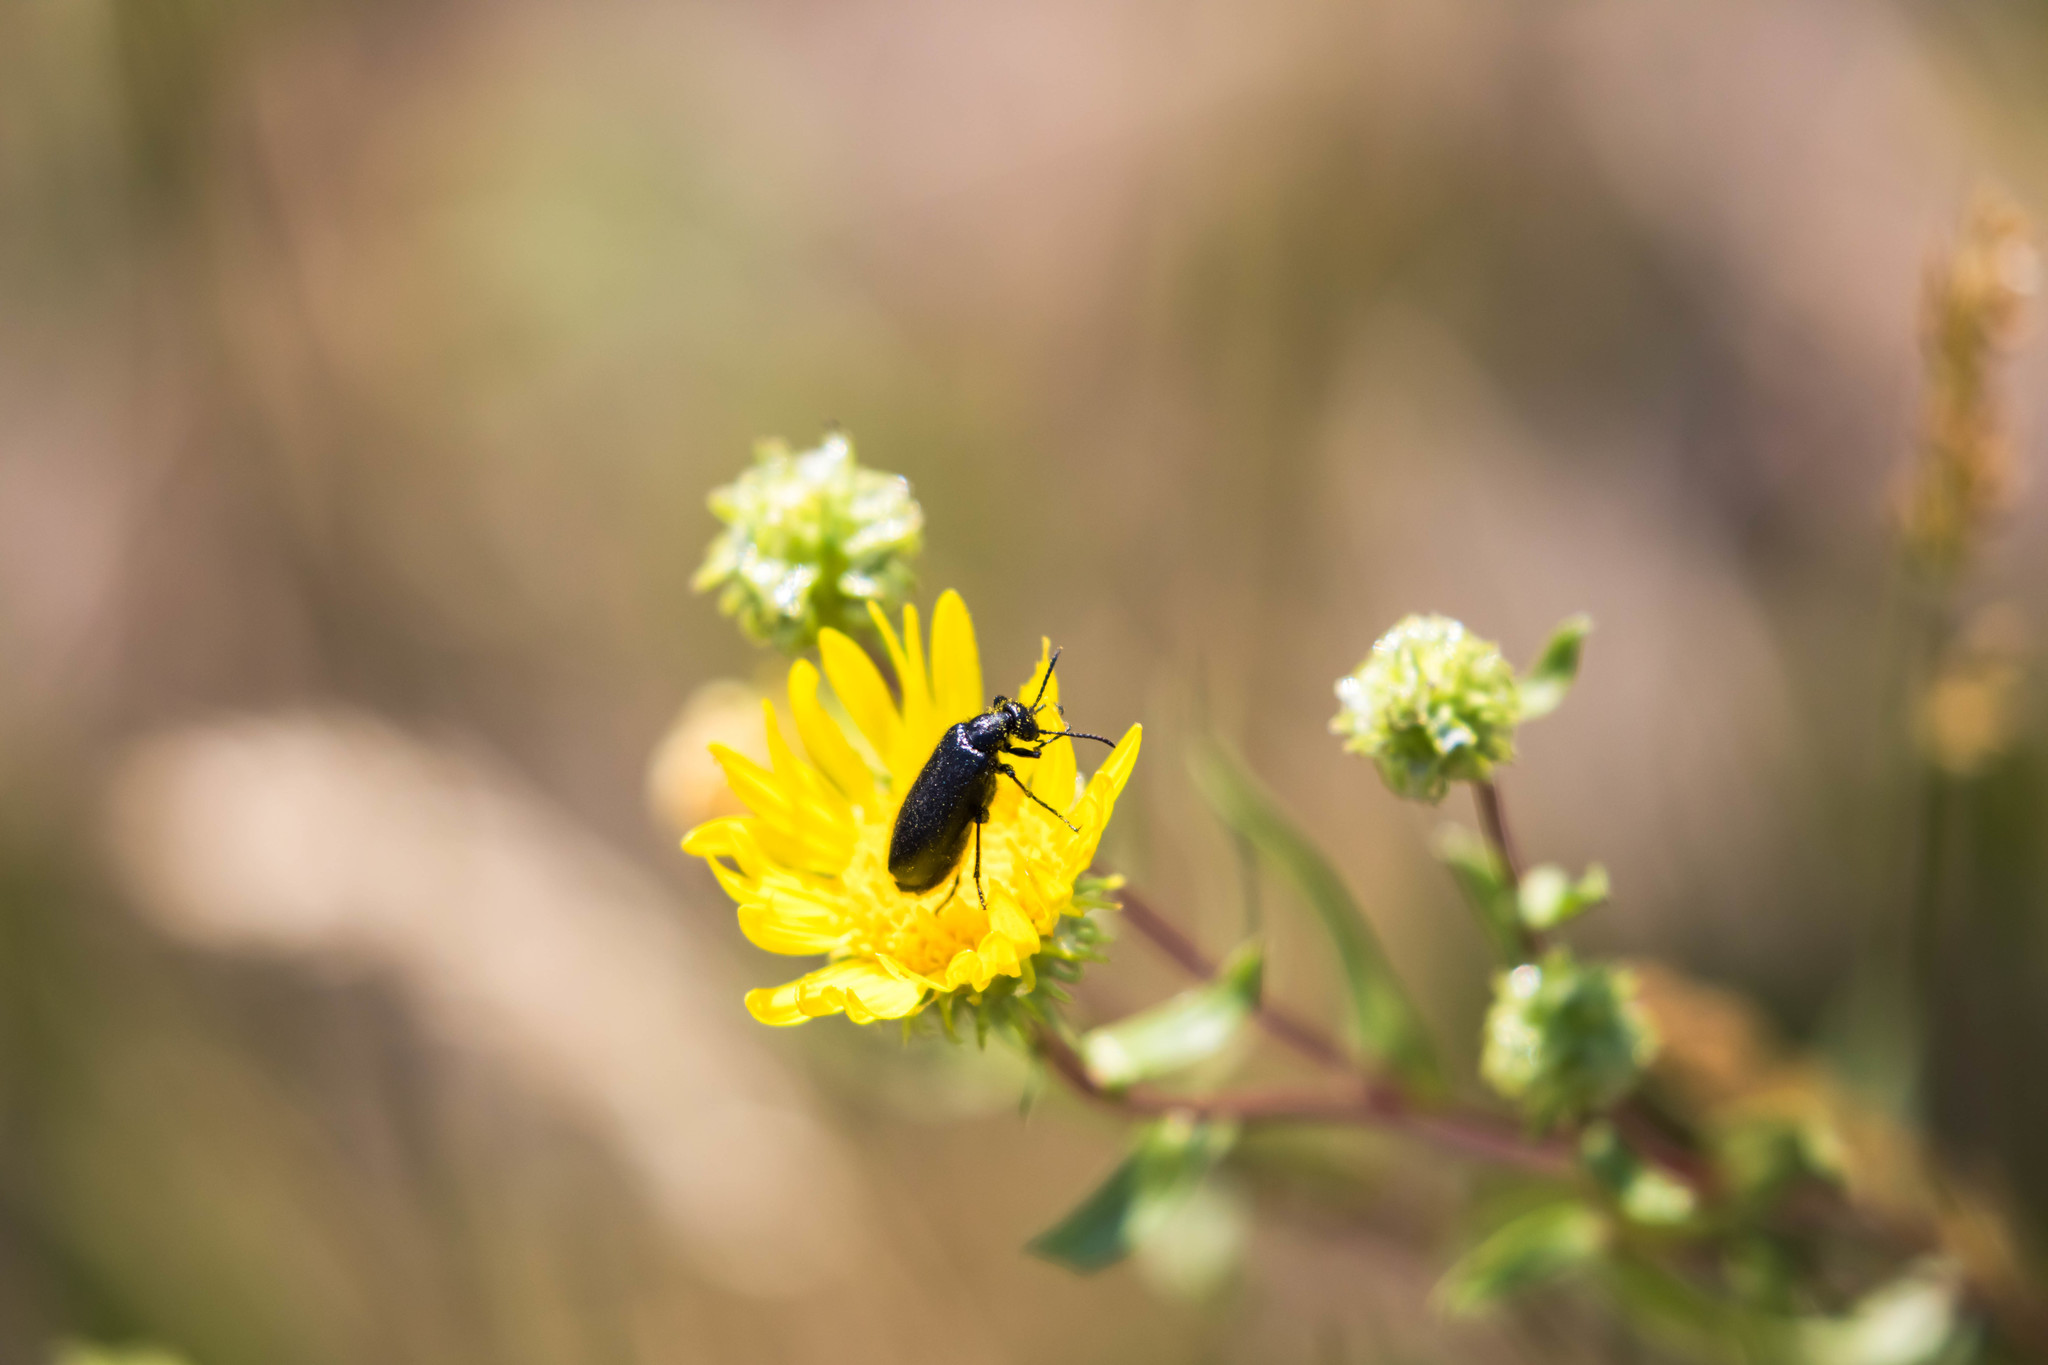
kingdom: Animalia
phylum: Arthropoda
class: Insecta
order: Coleoptera
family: Meloidae
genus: Epicauta
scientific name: Epicauta puncticollis
